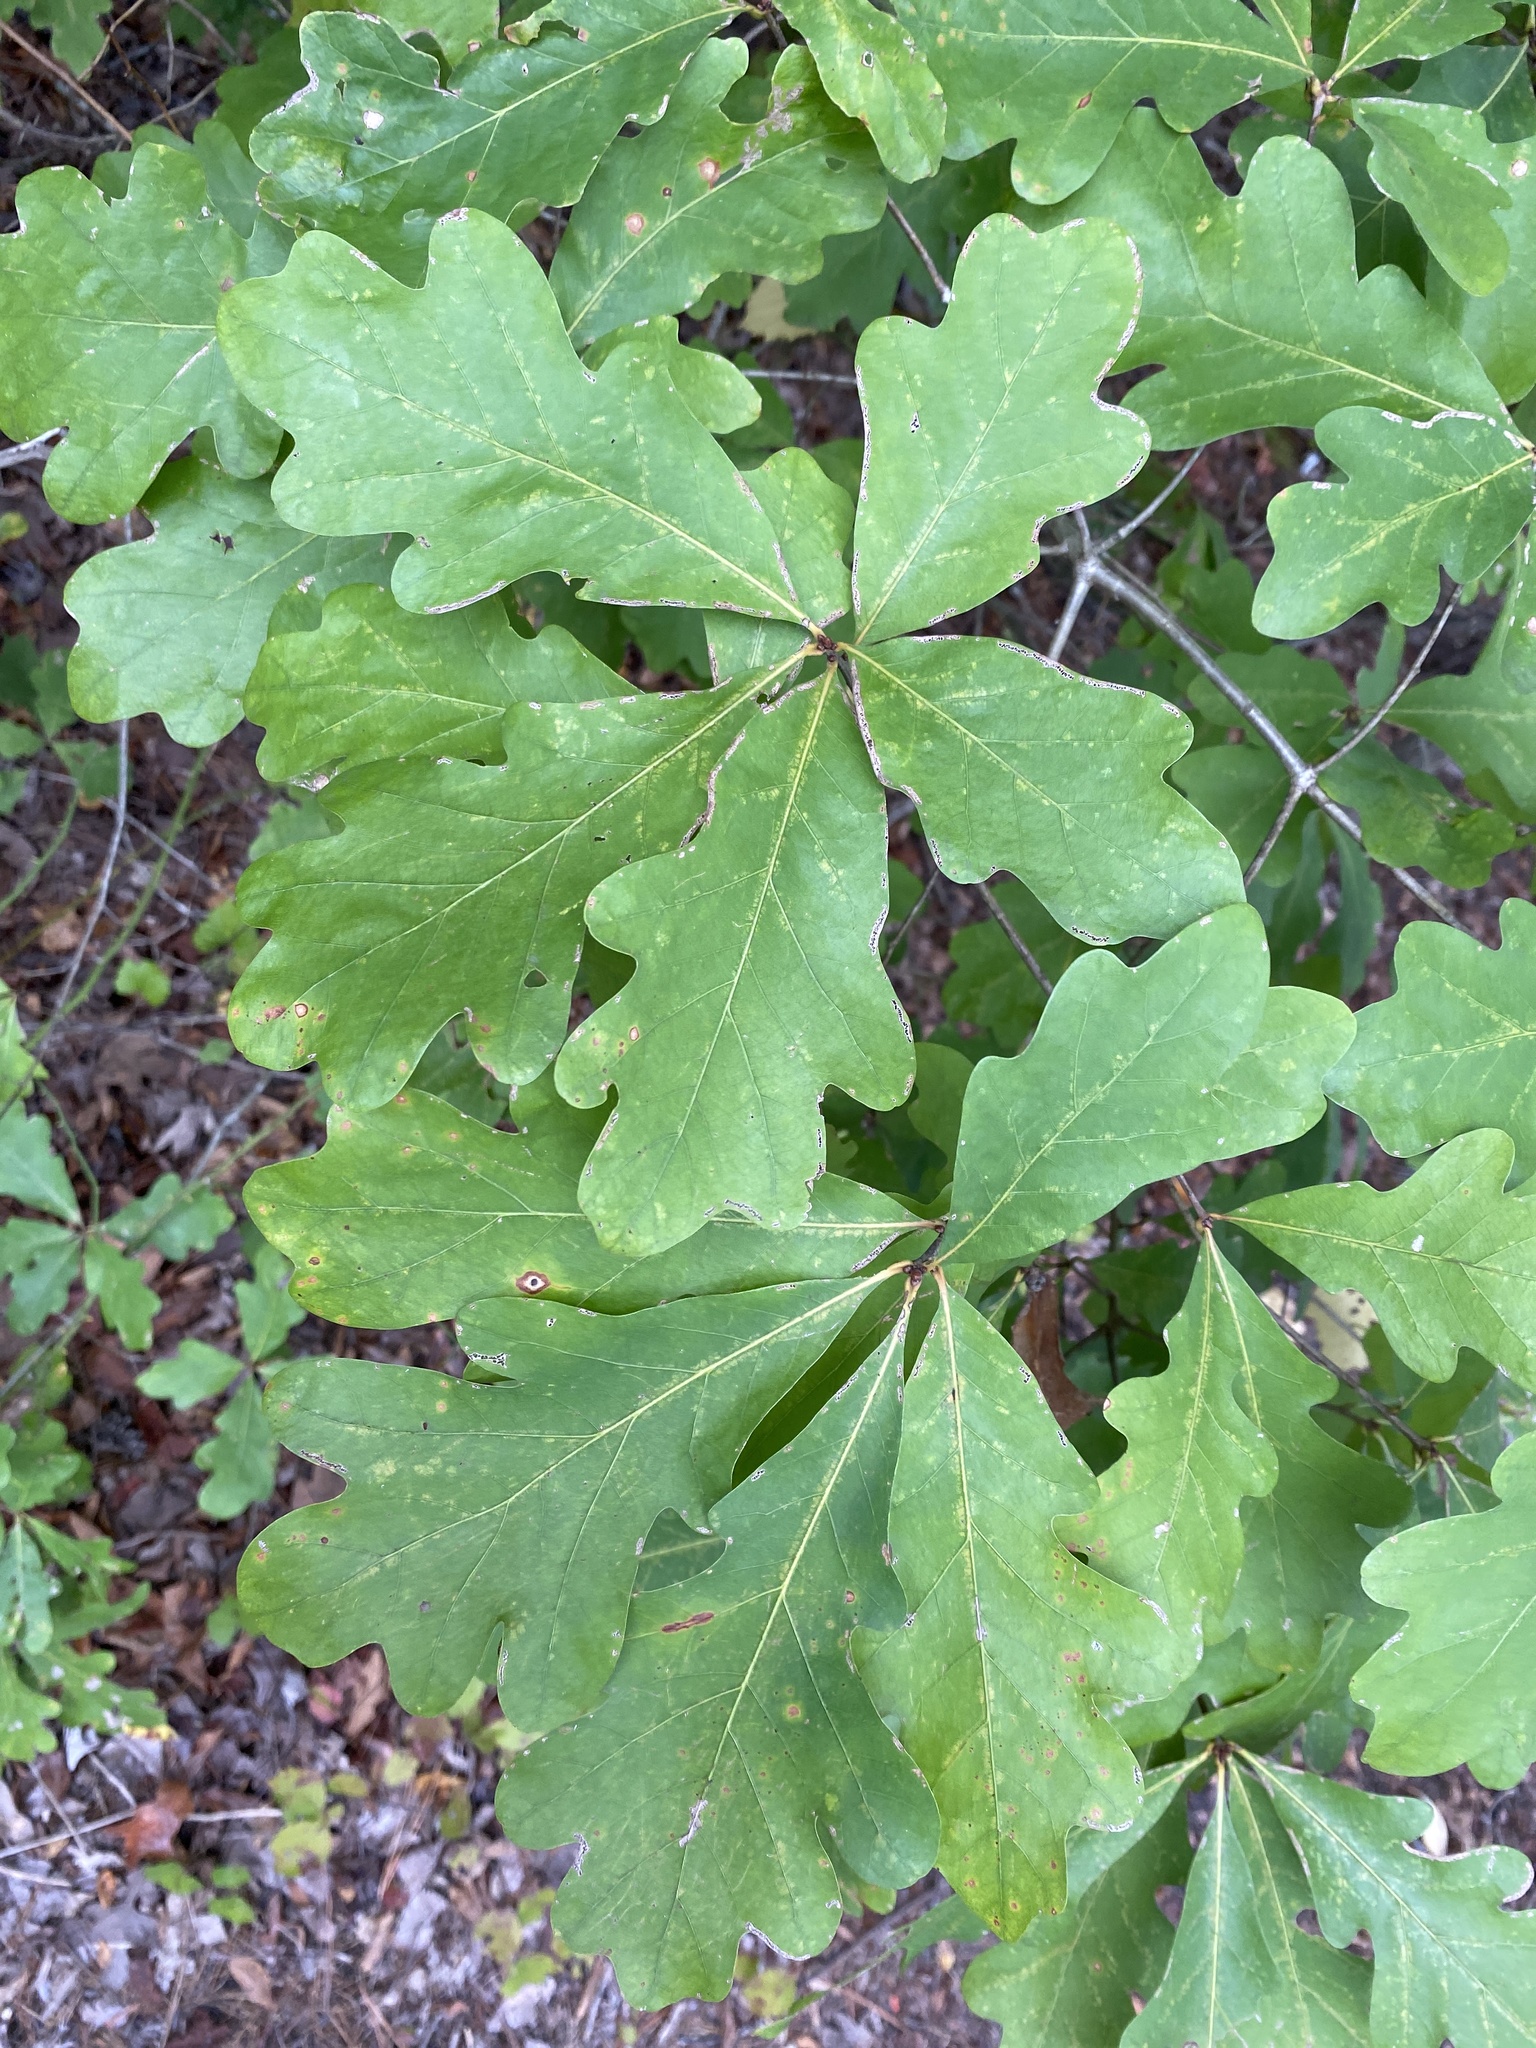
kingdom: Plantae
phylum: Tracheophyta
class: Magnoliopsida
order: Fagales
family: Fagaceae
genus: Quercus
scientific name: Quercus alba
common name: White oak
